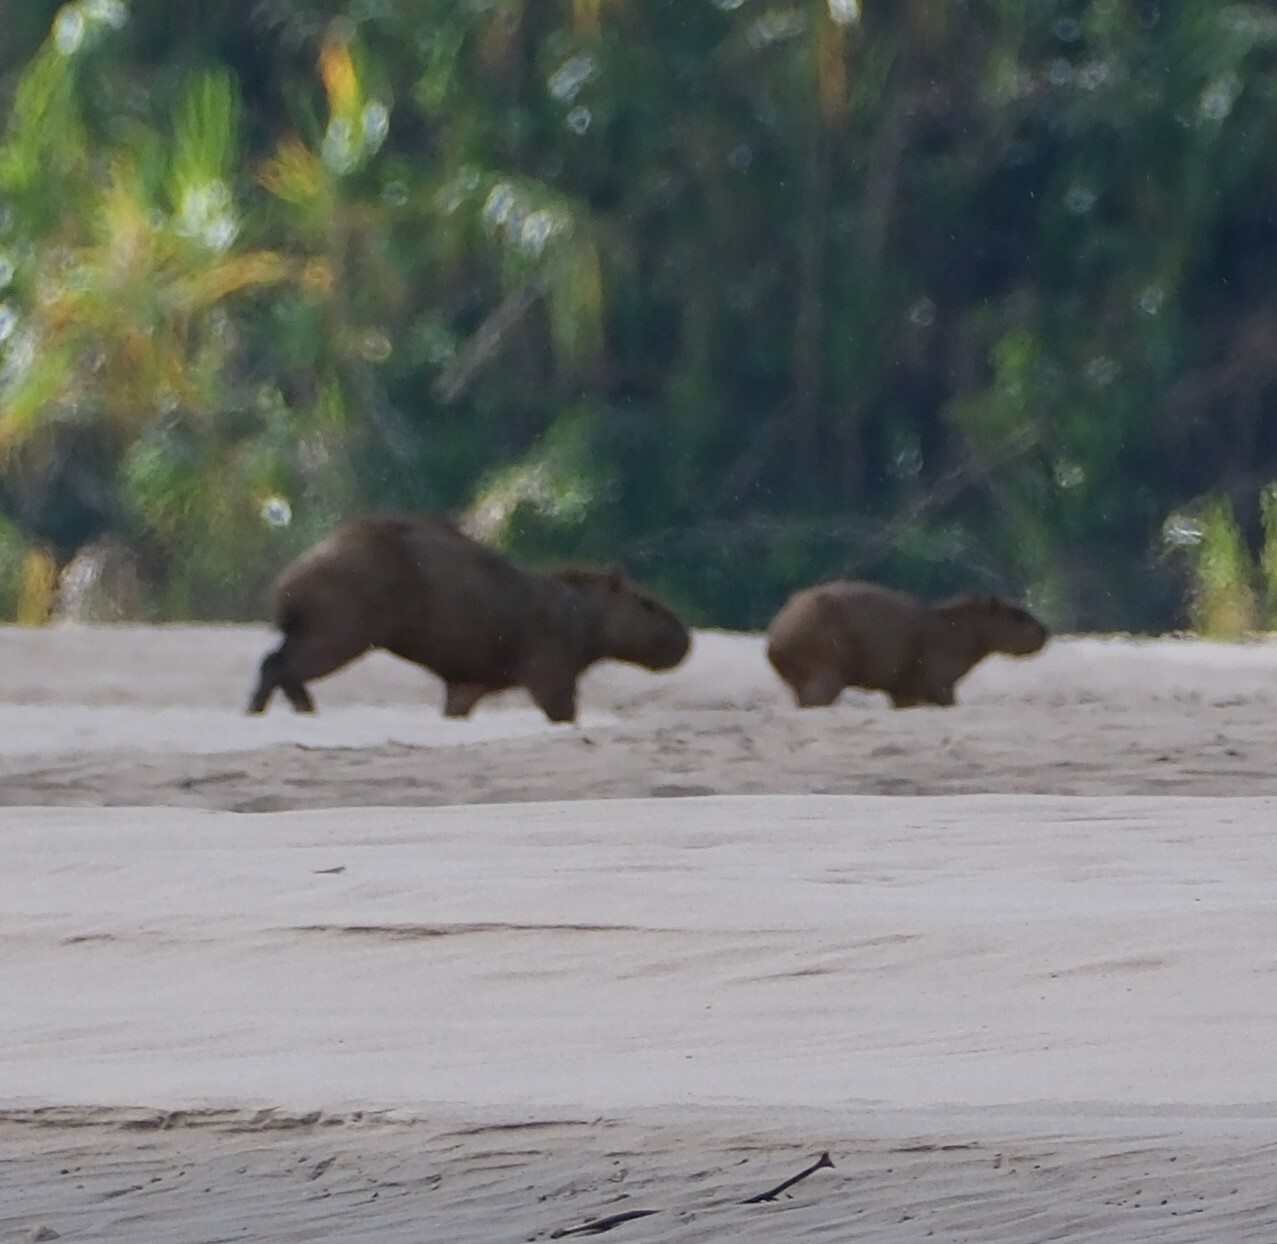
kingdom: Animalia
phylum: Chordata
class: Mammalia
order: Rodentia
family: Caviidae
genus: Hydrochoerus
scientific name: Hydrochoerus hydrochaeris
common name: Capybara
